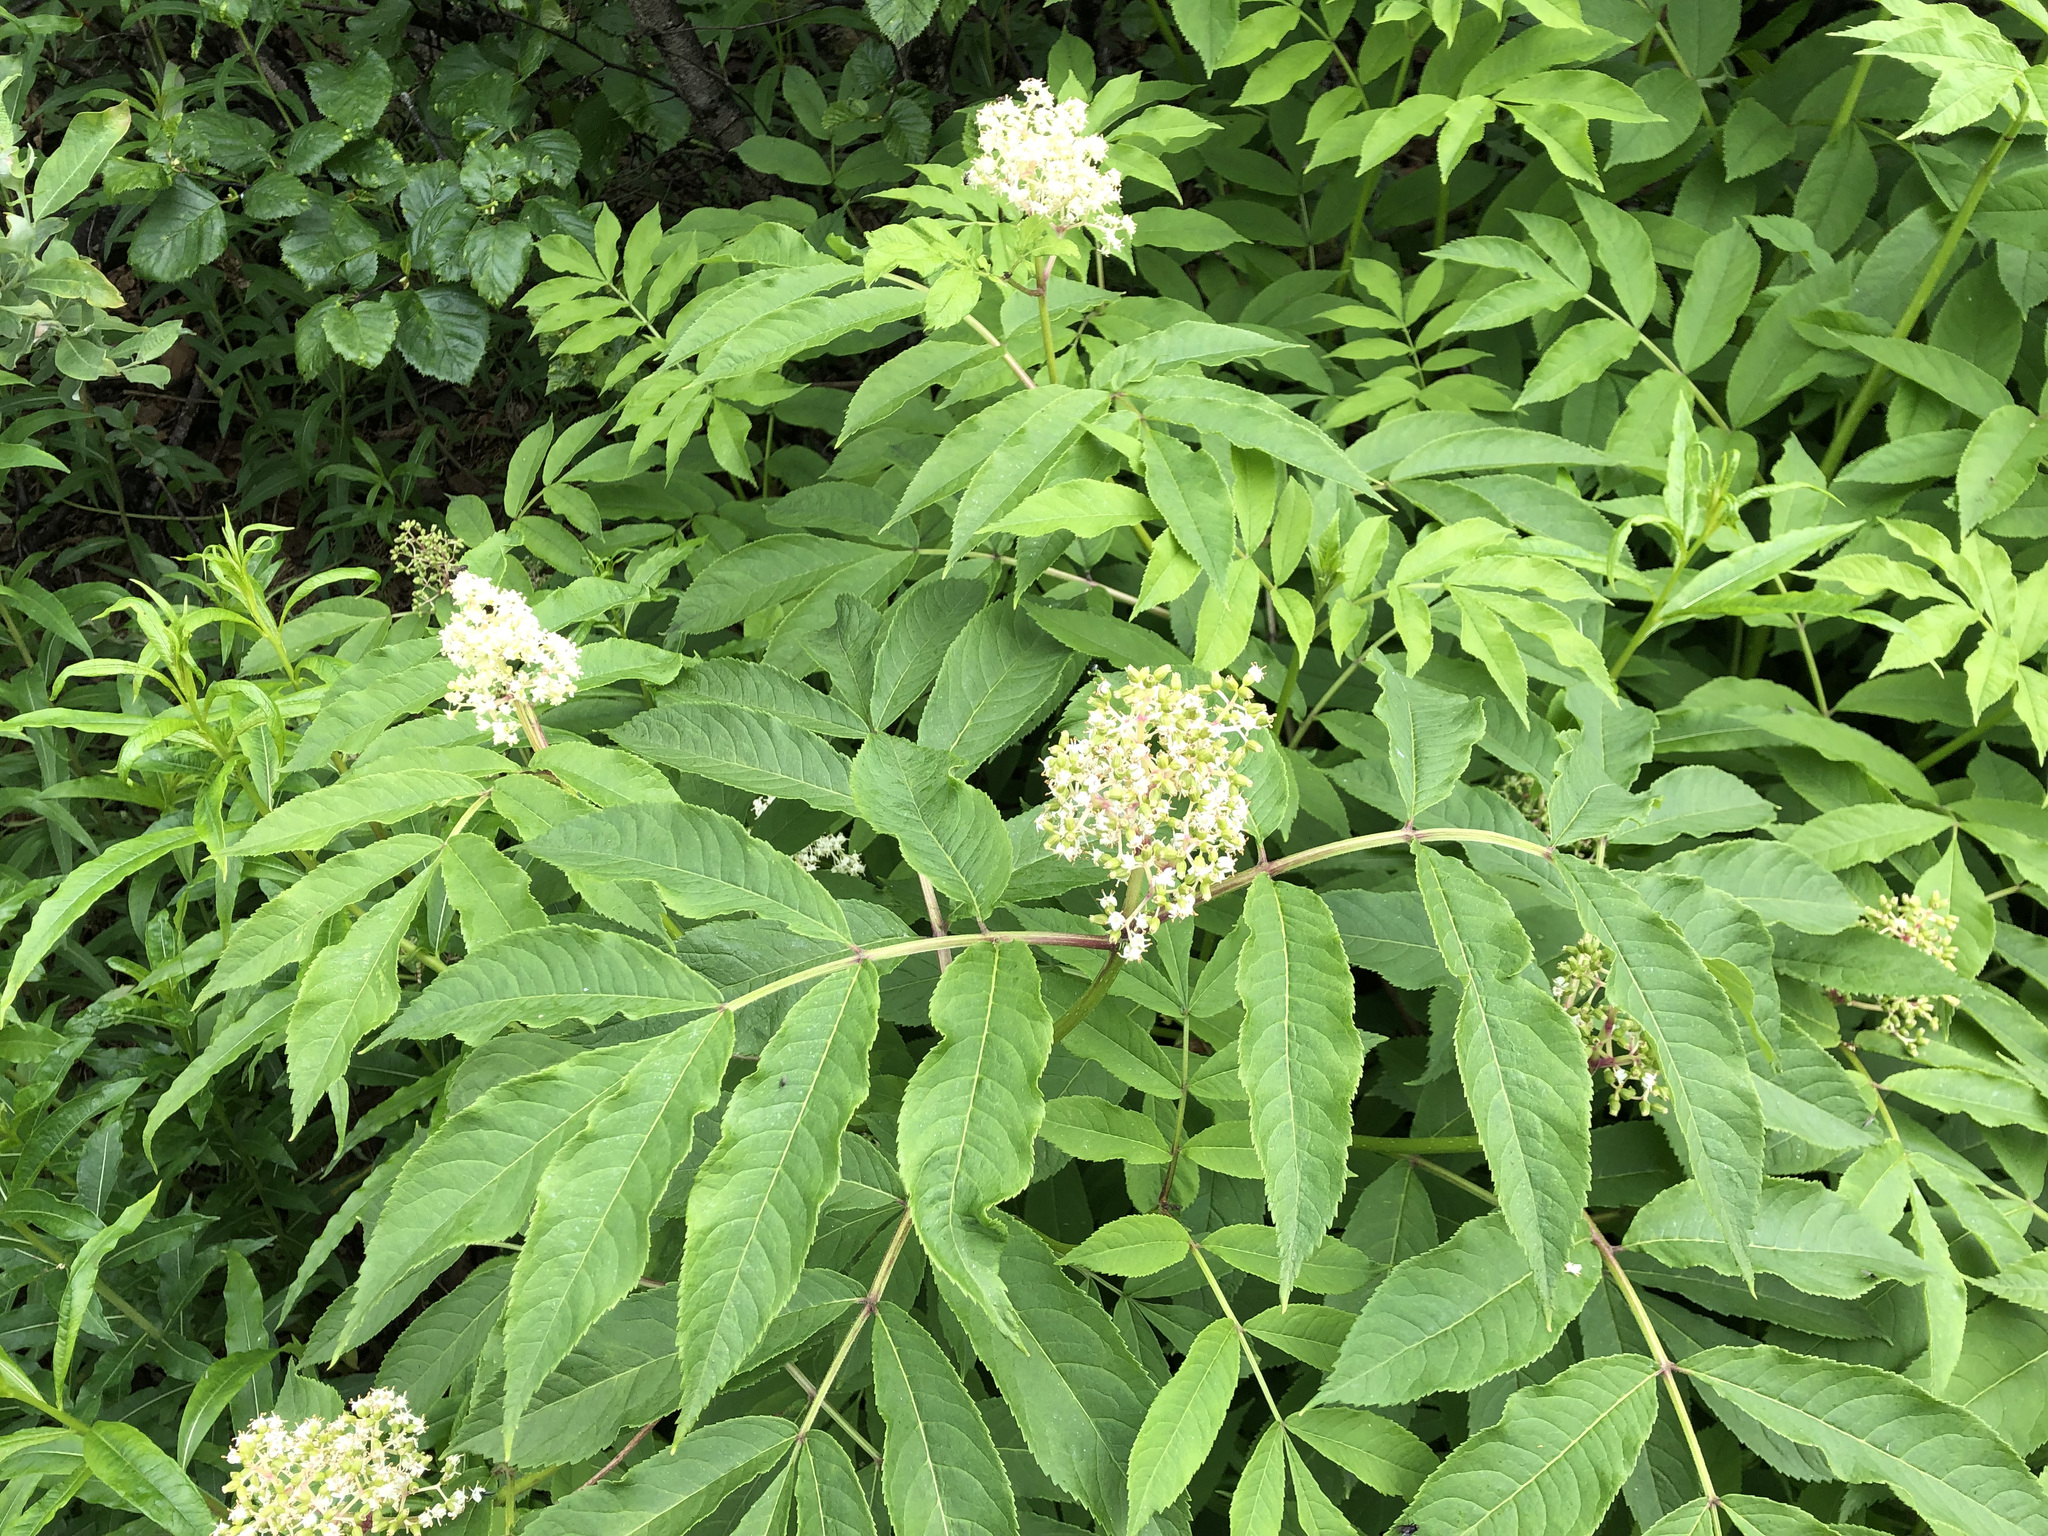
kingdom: Plantae
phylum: Tracheophyta
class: Magnoliopsida
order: Dipsacales
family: Viburnaceae
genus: Sambucus
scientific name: Sambucus racemosa
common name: Red-berried elder
